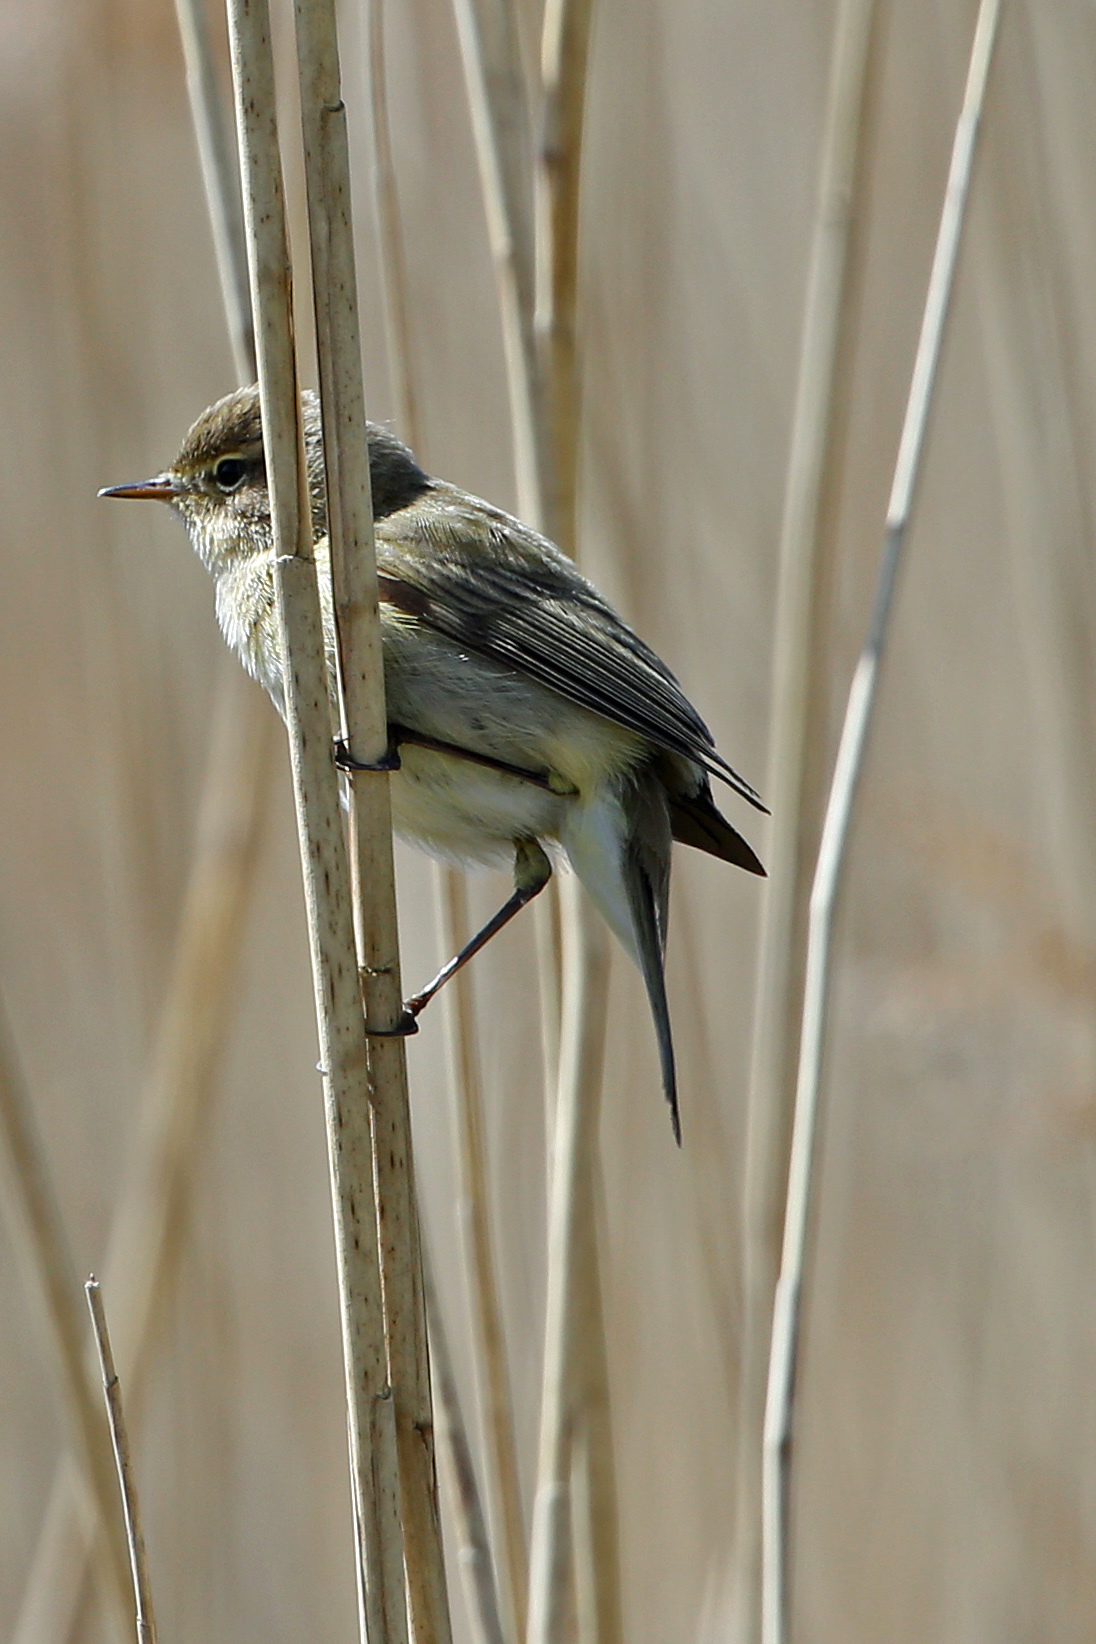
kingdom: Animalia
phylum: Chordata
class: Aves
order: Passeriformes
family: Phylloscopidae
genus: Phylloscopus
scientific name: Phylloscopus collybita
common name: Common chiffchaff
